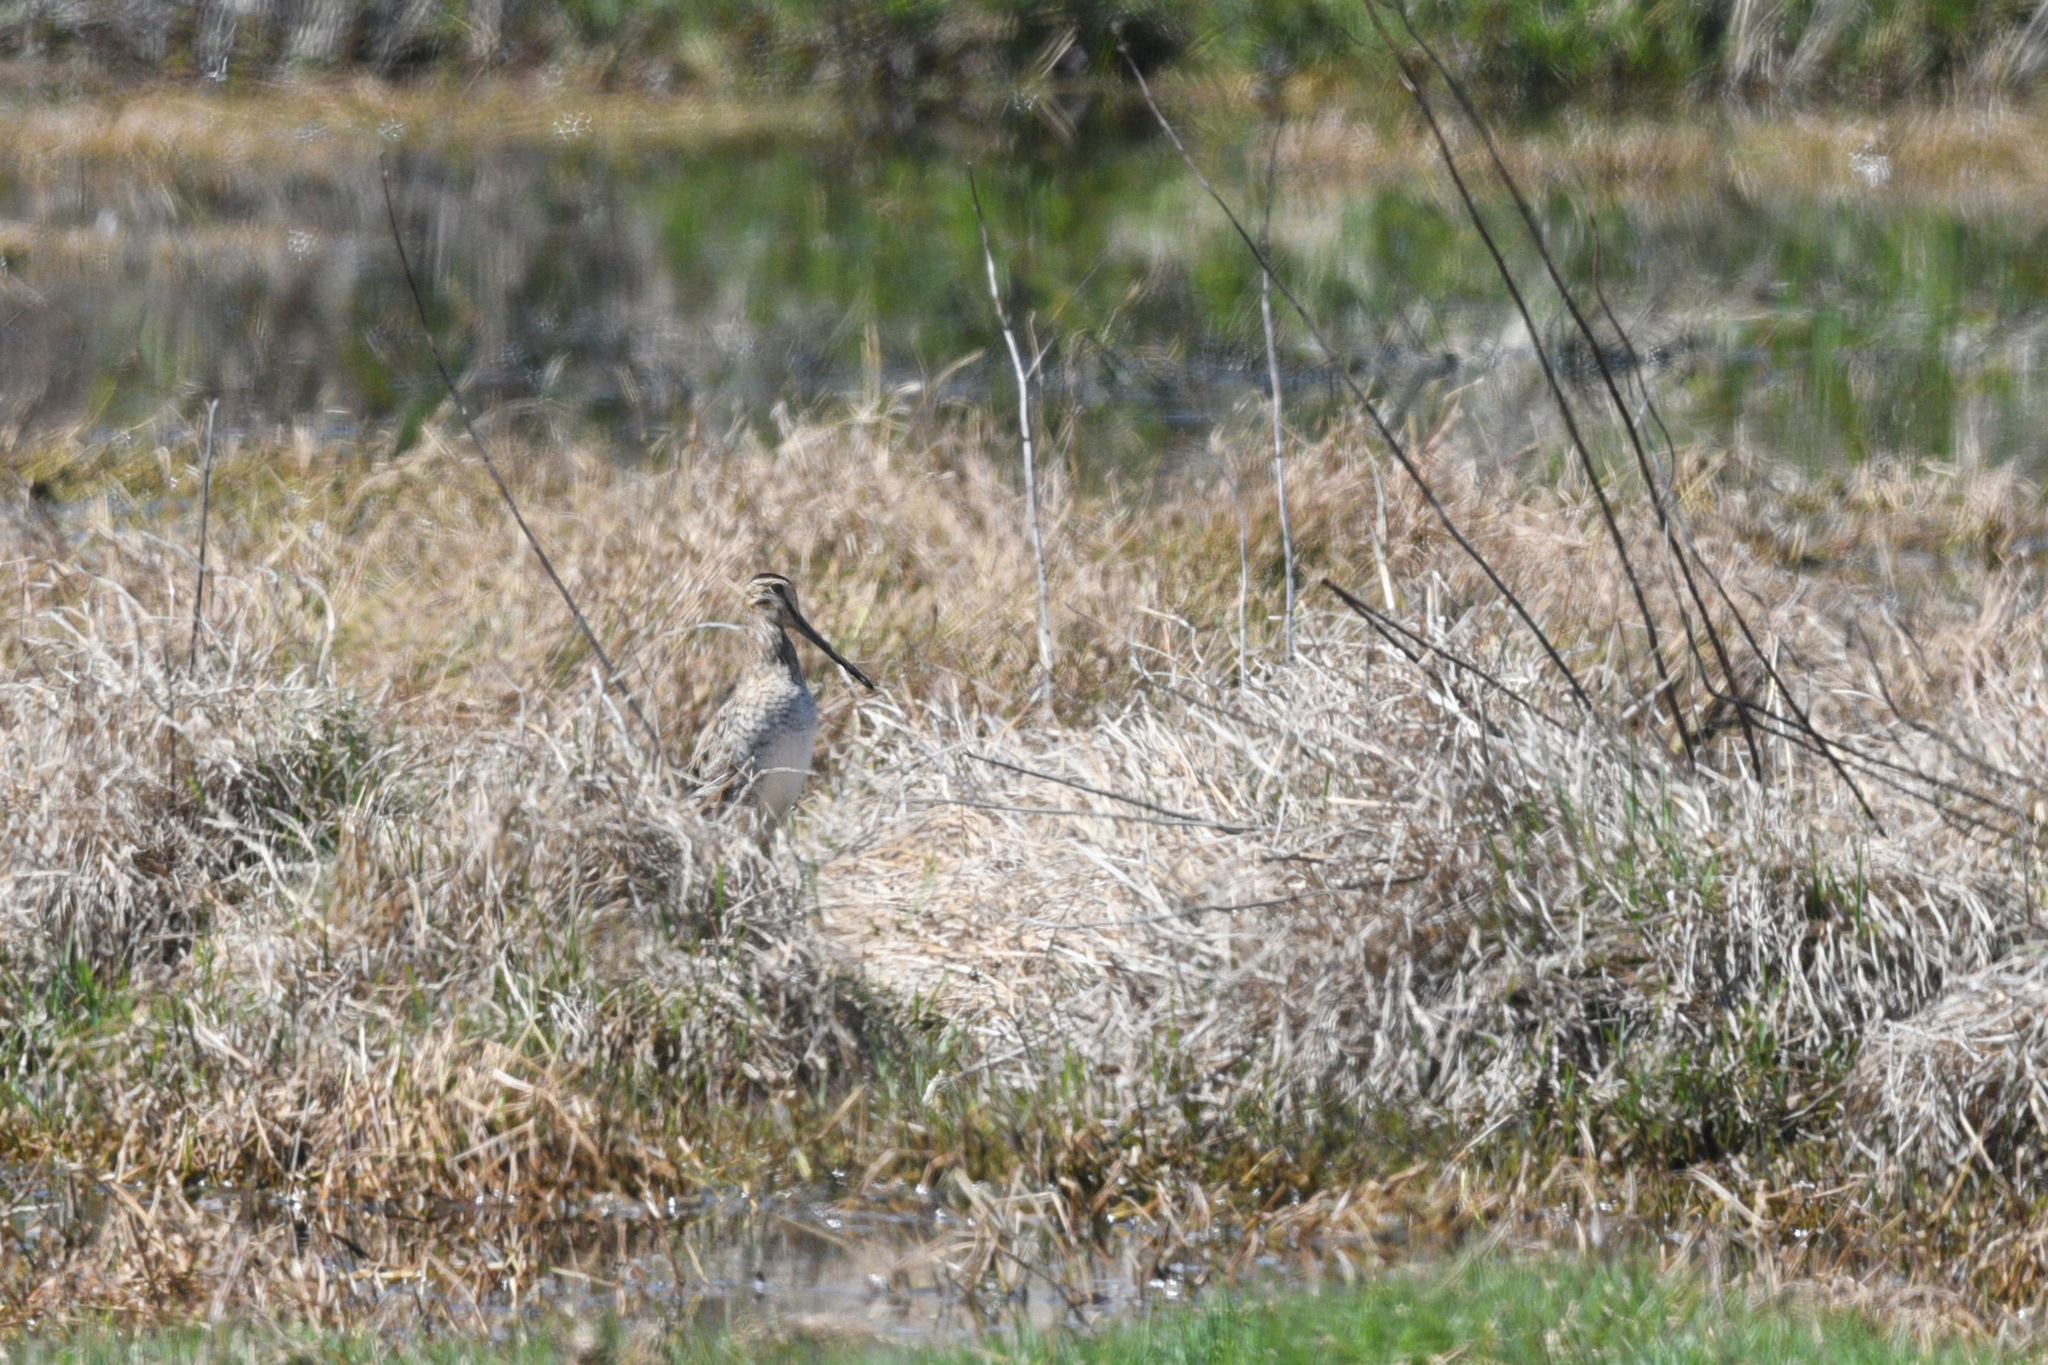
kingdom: Animalia
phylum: Chordata
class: Aves
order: Charadriiformes
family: Scolopacidae
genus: Gallinago
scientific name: Gallinago hardwickii
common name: Latham's snipe
